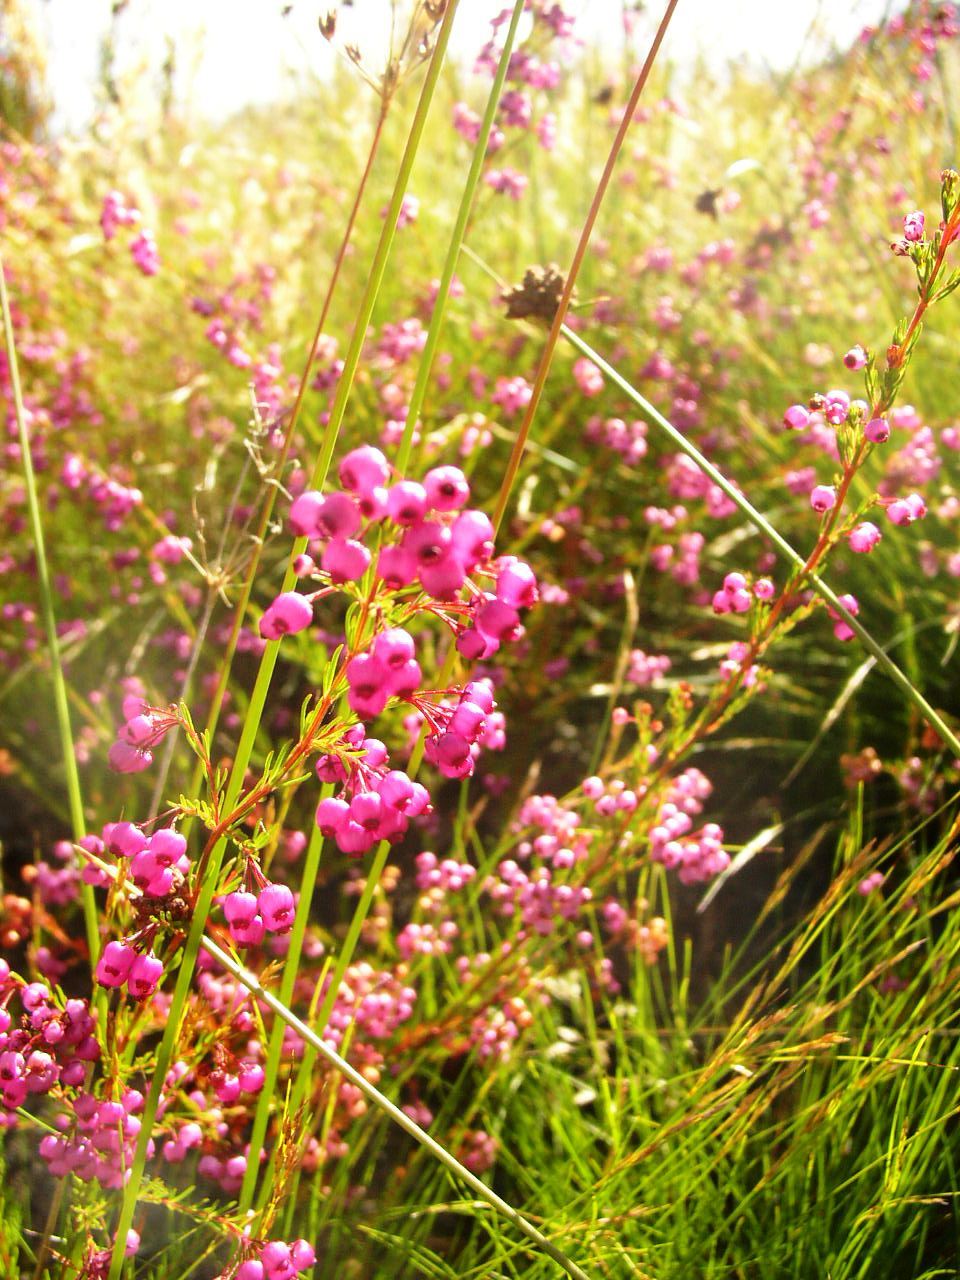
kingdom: Plantae
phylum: Tracheophyta
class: Magnoliopsida
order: Ericales
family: Ericaceae
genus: Erica
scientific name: Erica multumbellifera
